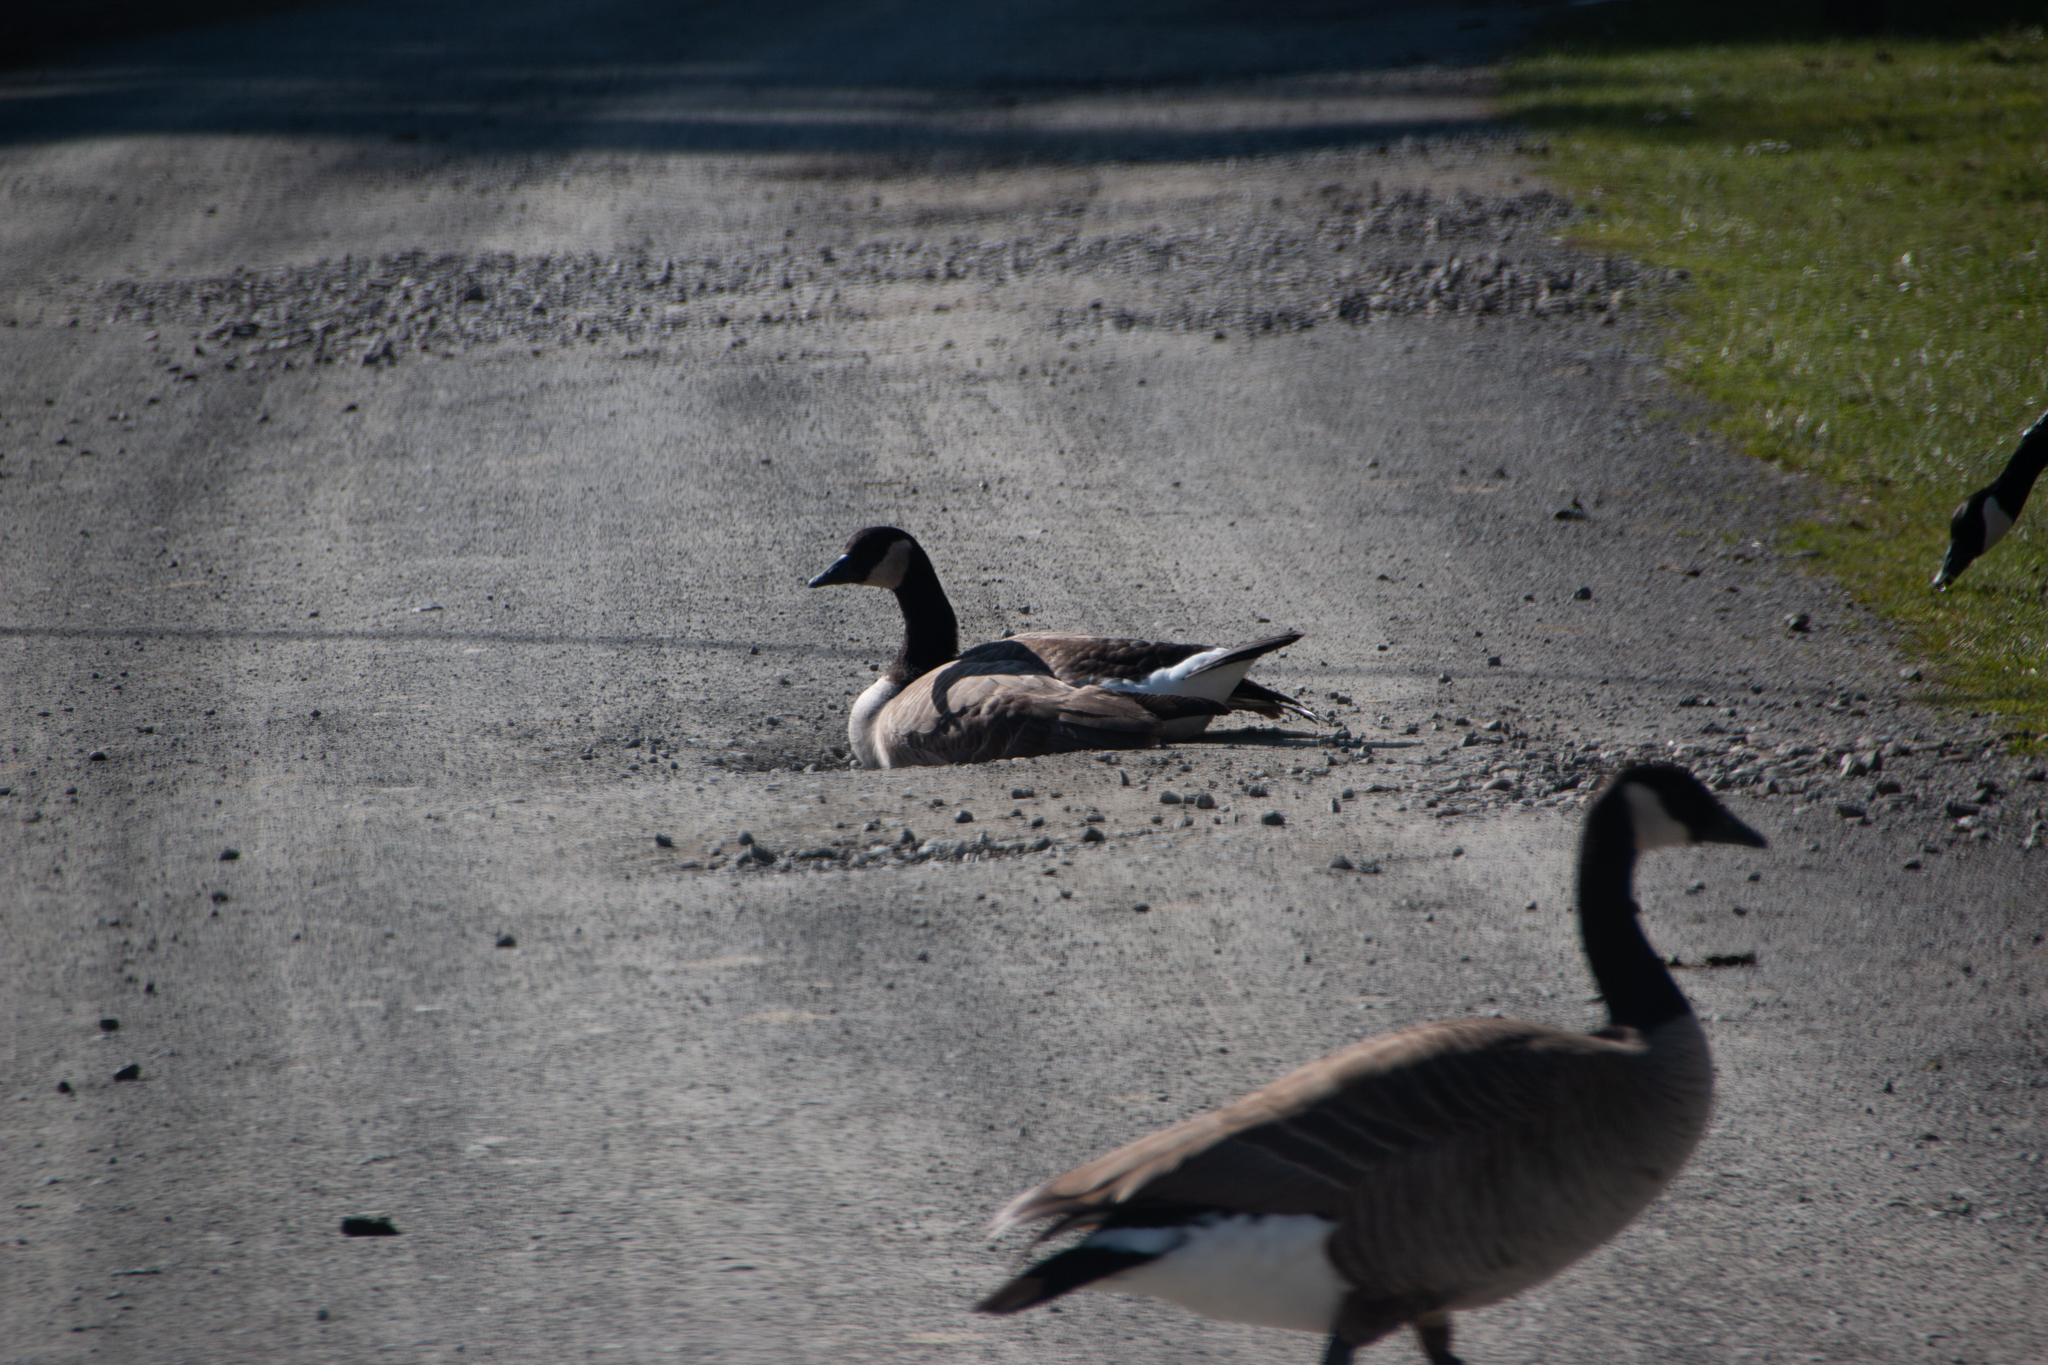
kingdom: Animalia
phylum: Chordata
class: Aves
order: Anseriformes
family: Anatidae
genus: Branta
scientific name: Branta canadensis
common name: Canada goose
